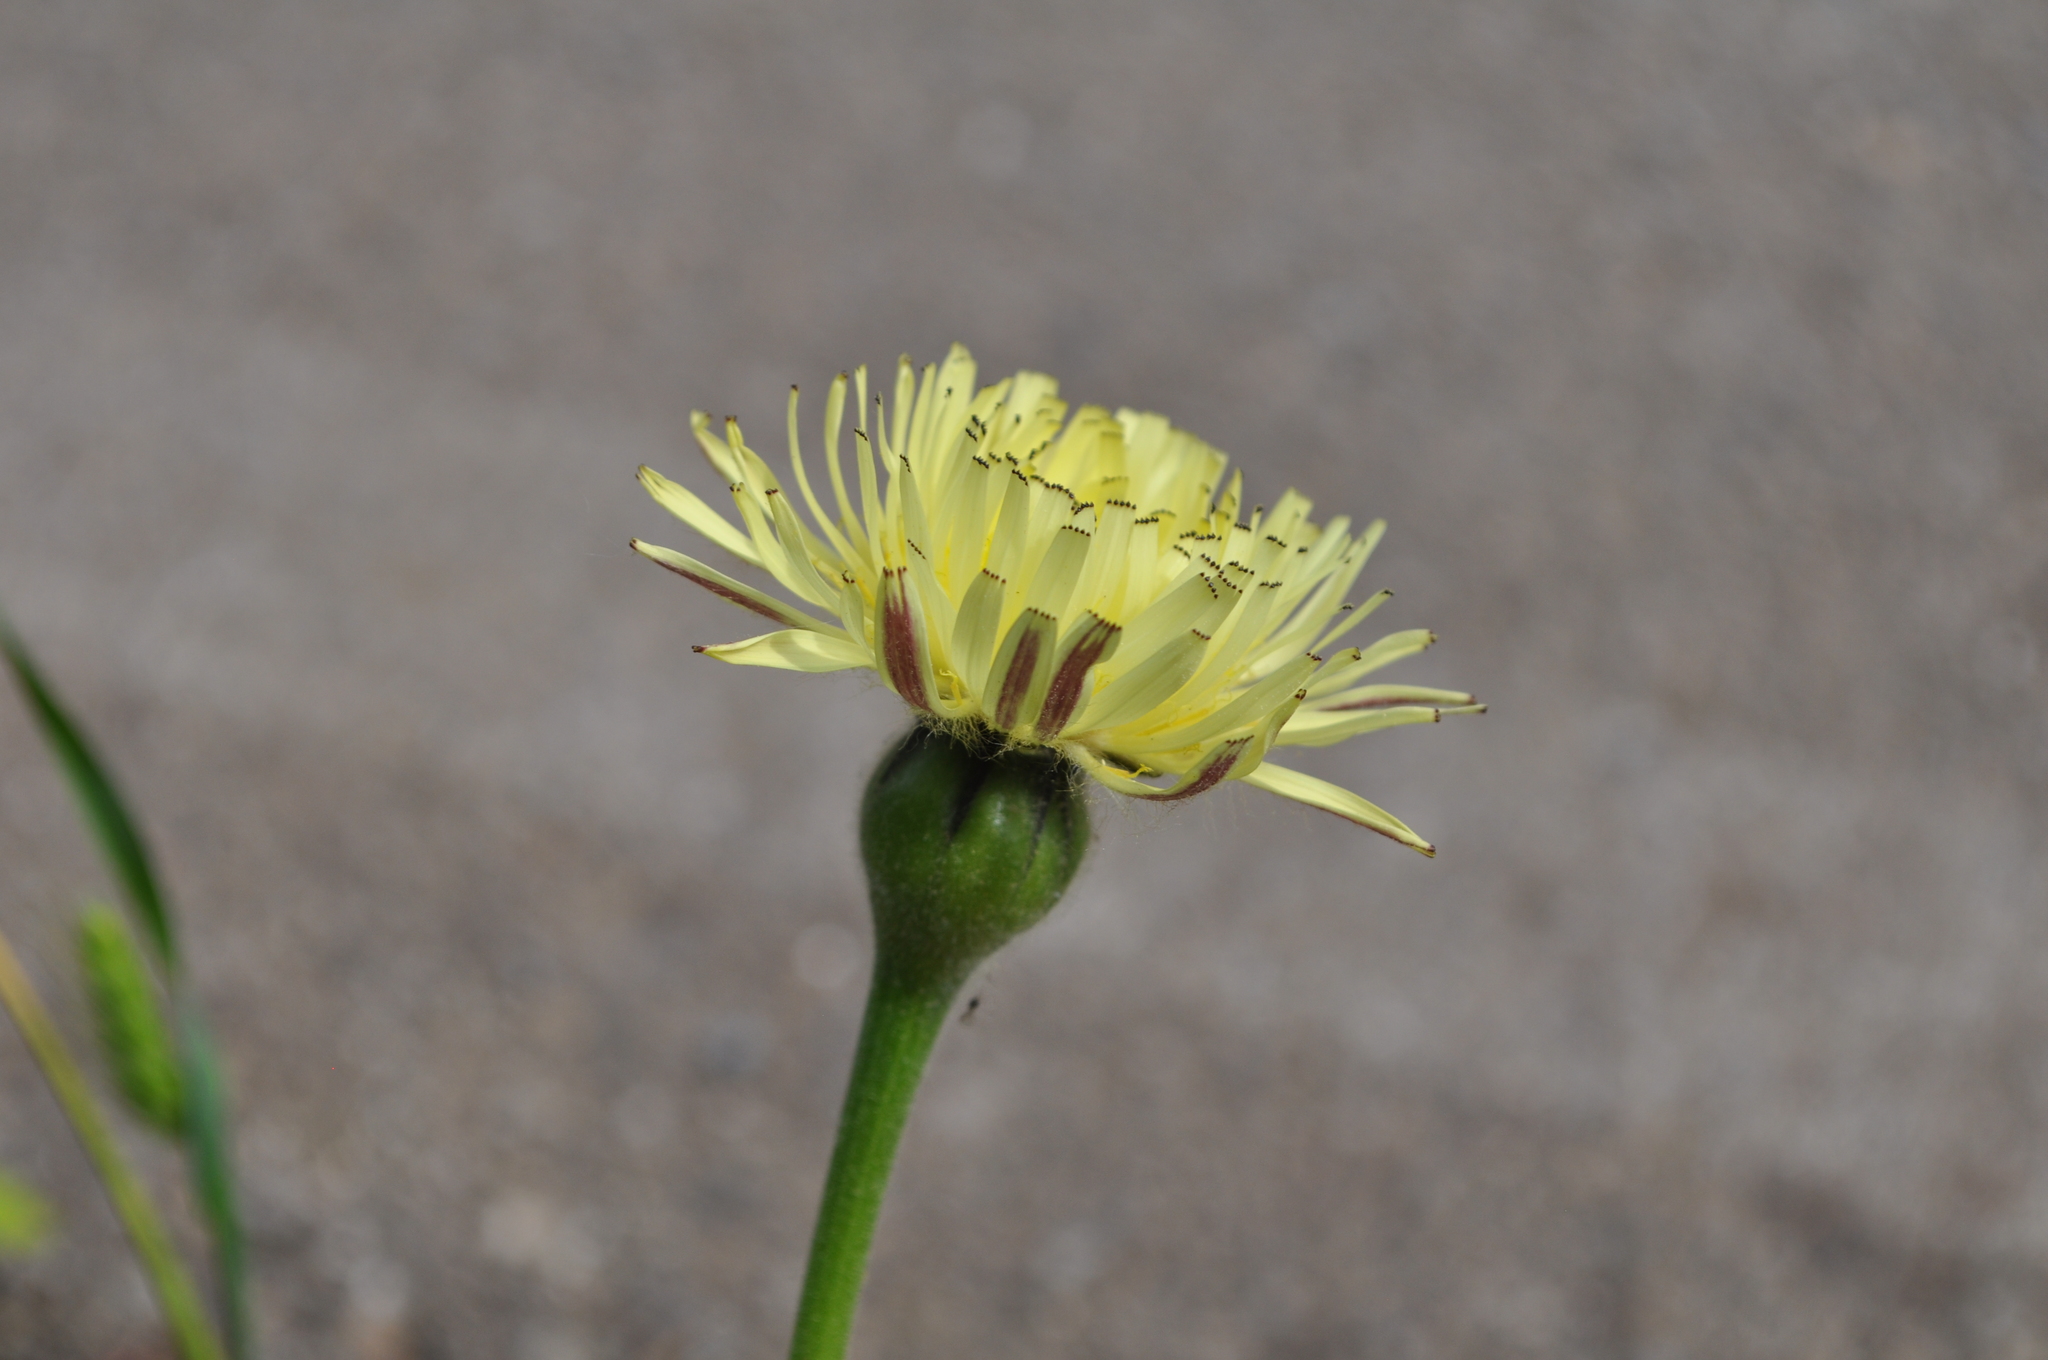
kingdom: Plantae
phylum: Tracheophyta
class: Magnoliopsida
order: Asterales
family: Asteraceae
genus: Urospermum
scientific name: Urospermum dalechampii
